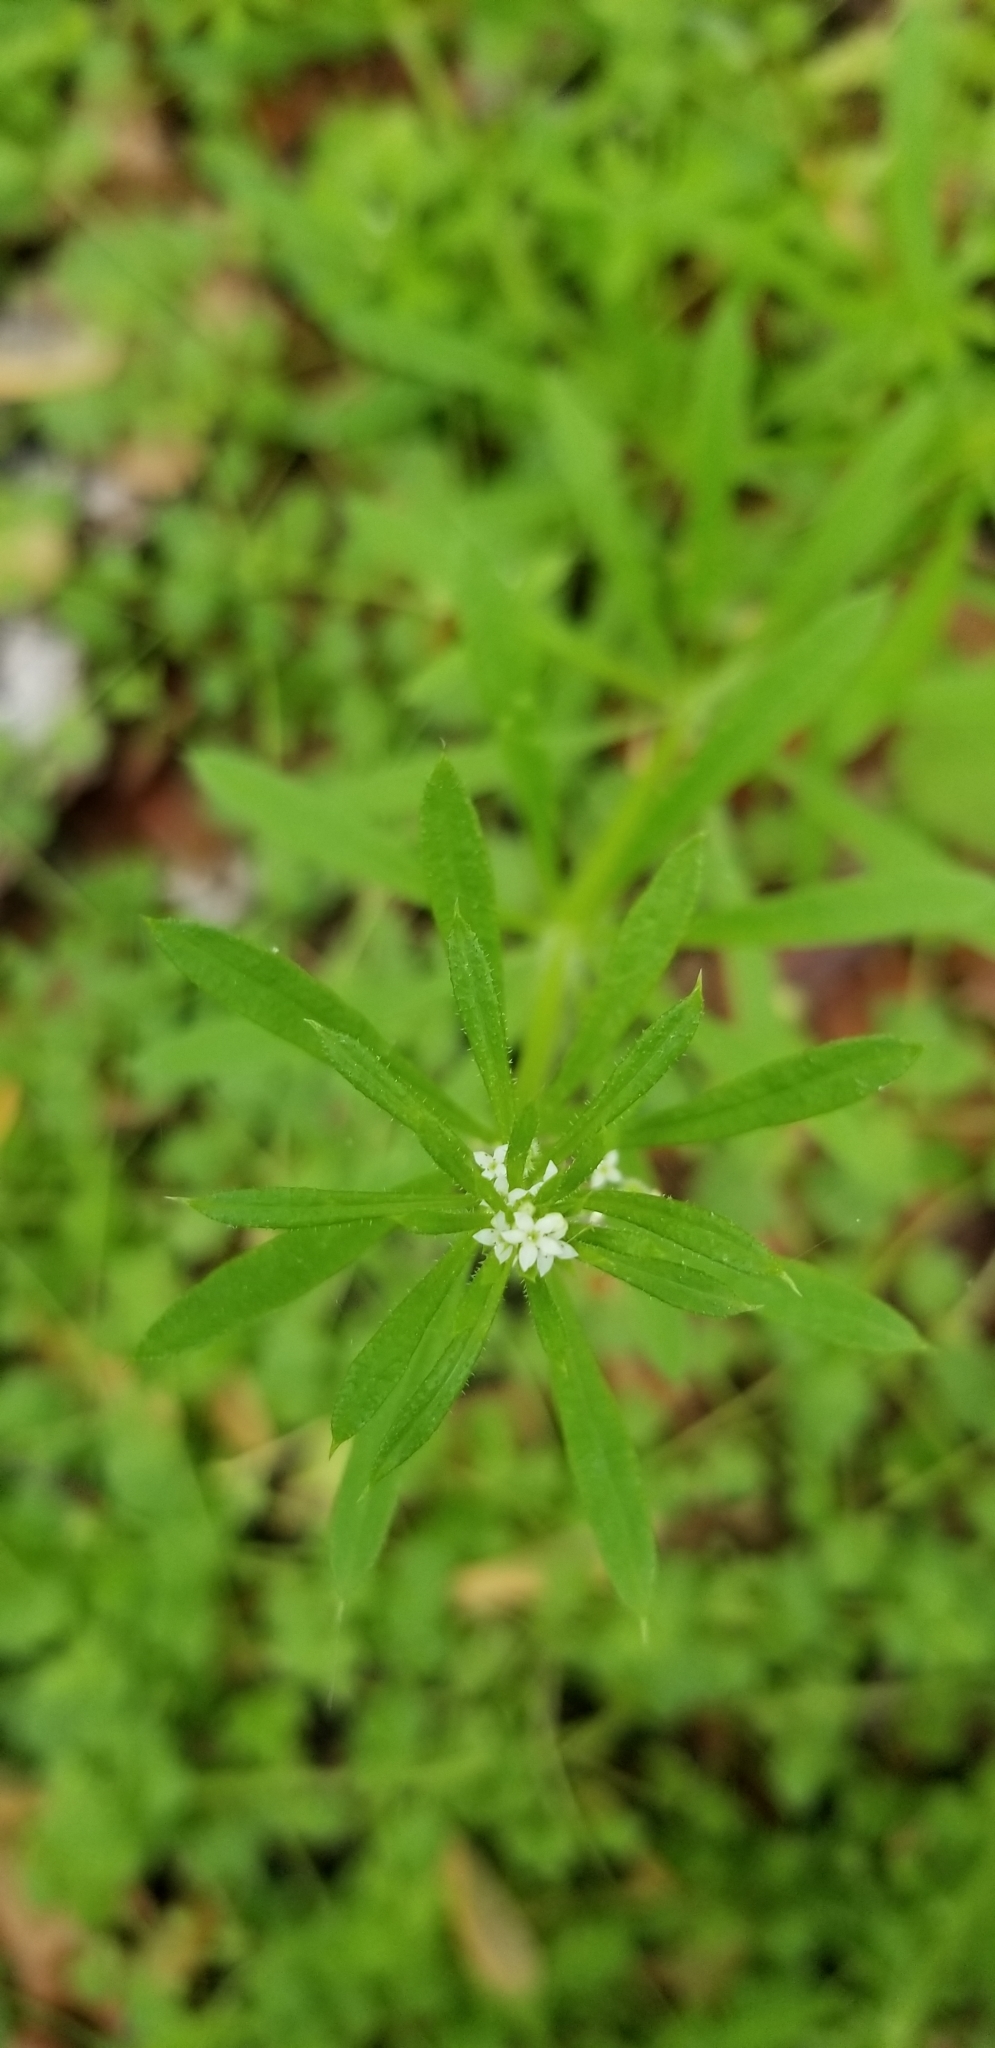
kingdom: Plantae
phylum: Tracheophyta
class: Magnoliopsida
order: Gentianales
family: Rubiaceae
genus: Galium
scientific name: Galium aparine
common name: Cleavers
